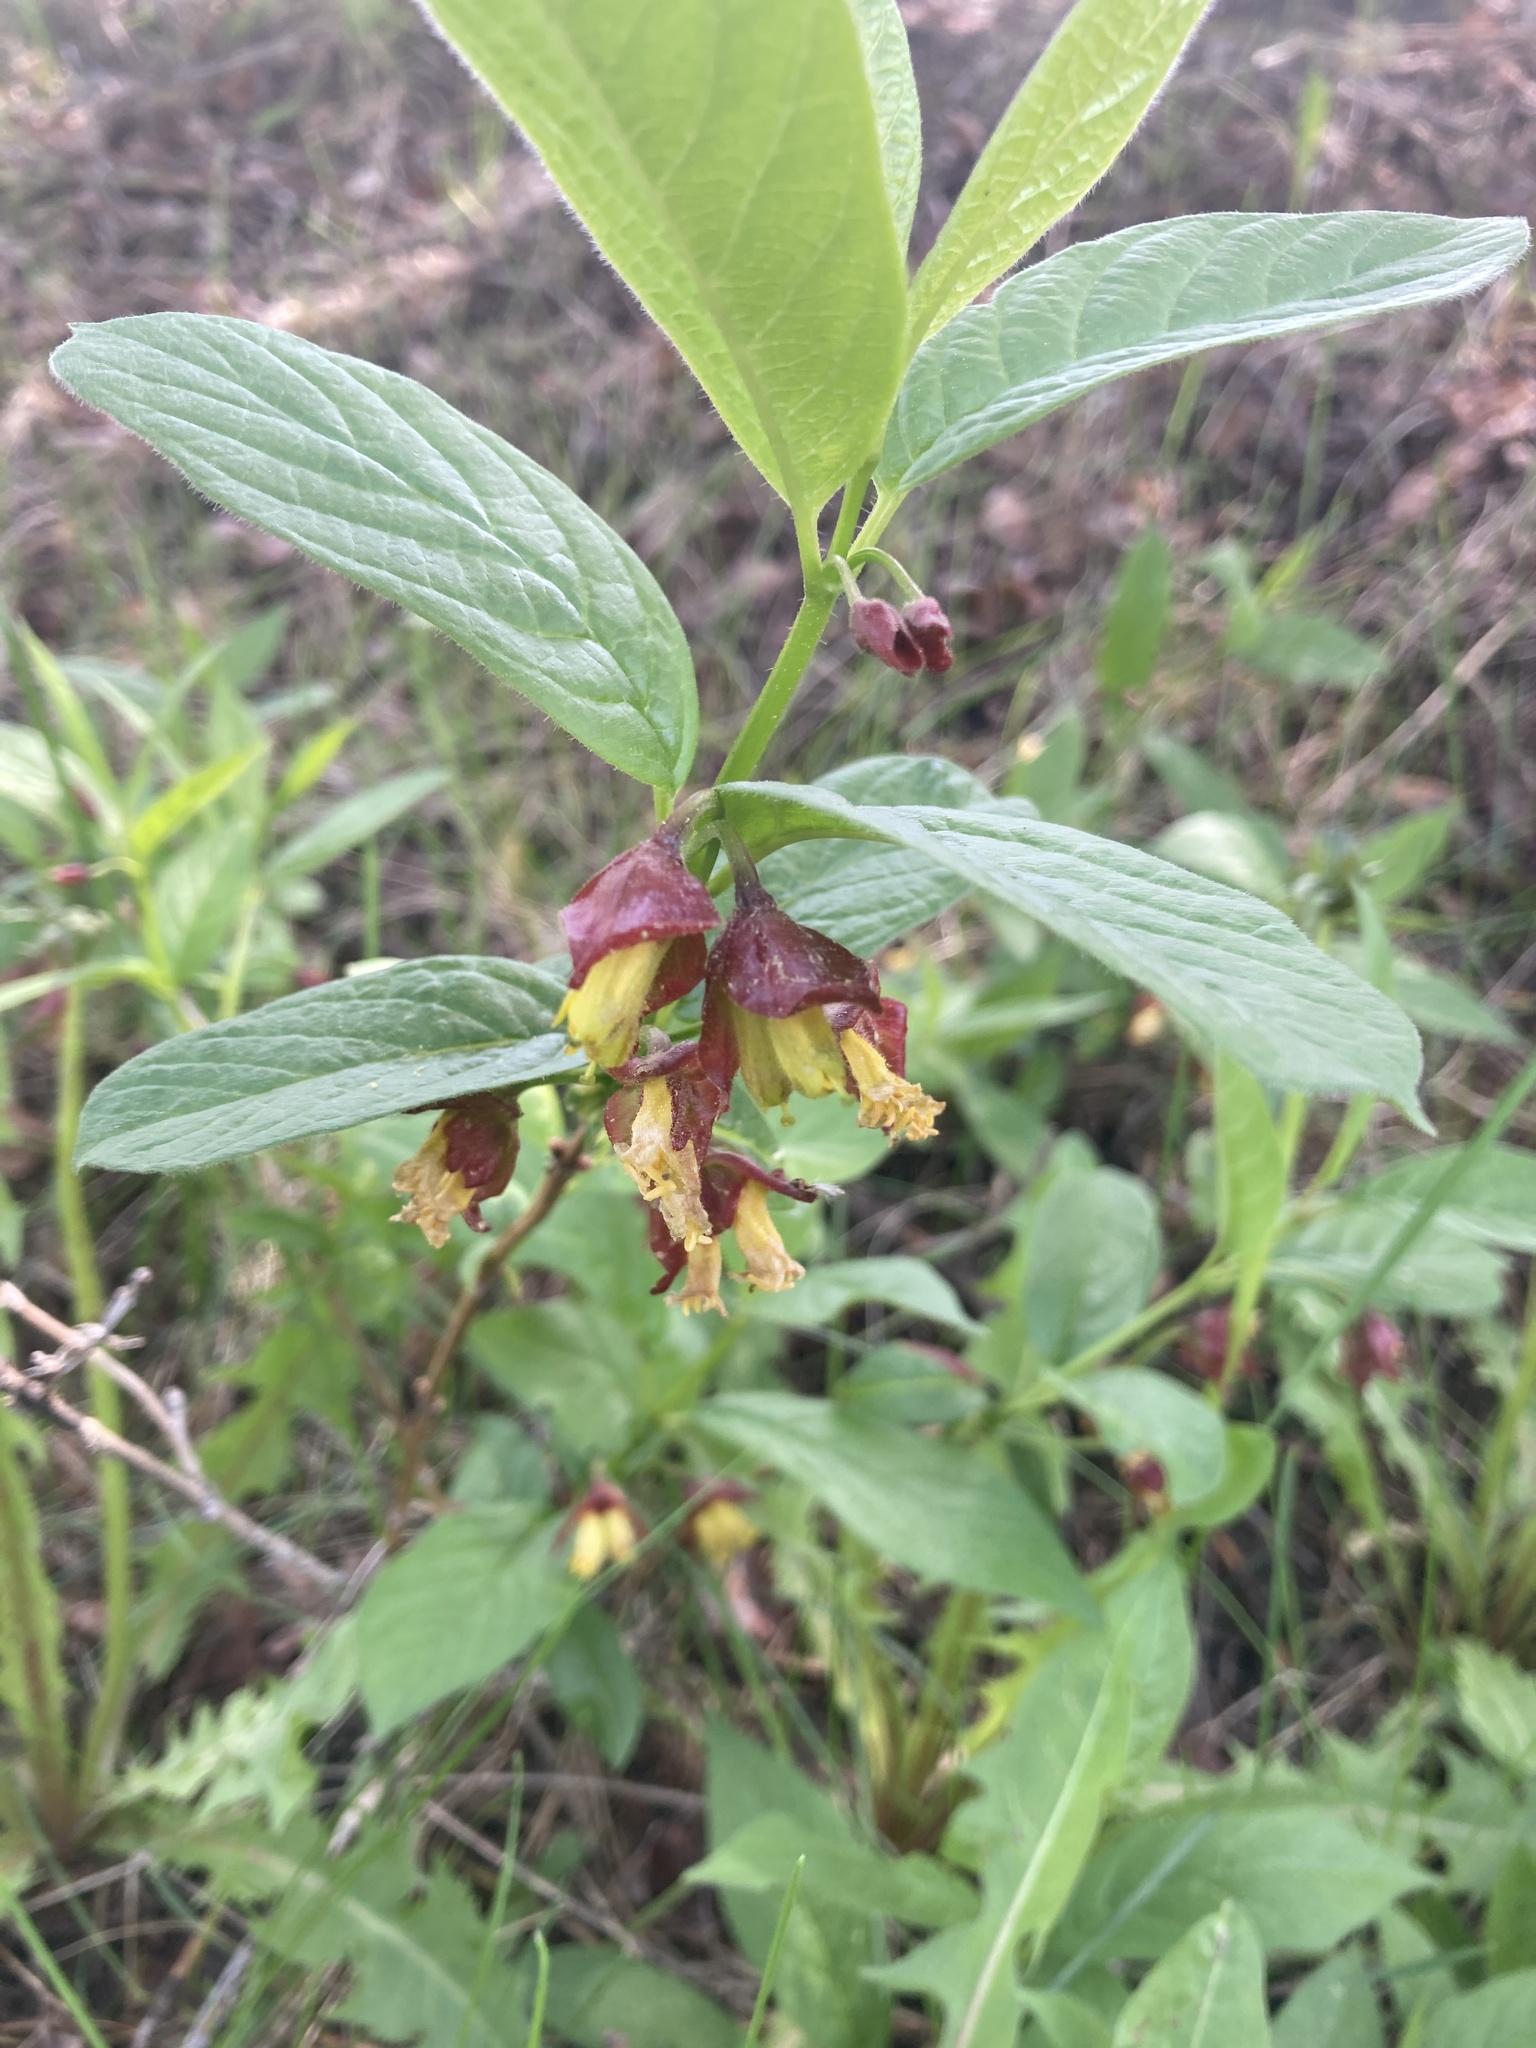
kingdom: Plantae
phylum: Tracheophyta
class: Magnoliopsida
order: Dipsacales
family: Caprifoliaceae
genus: Lonicera
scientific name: Lonicera involucrata
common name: Californian honeysuckle
